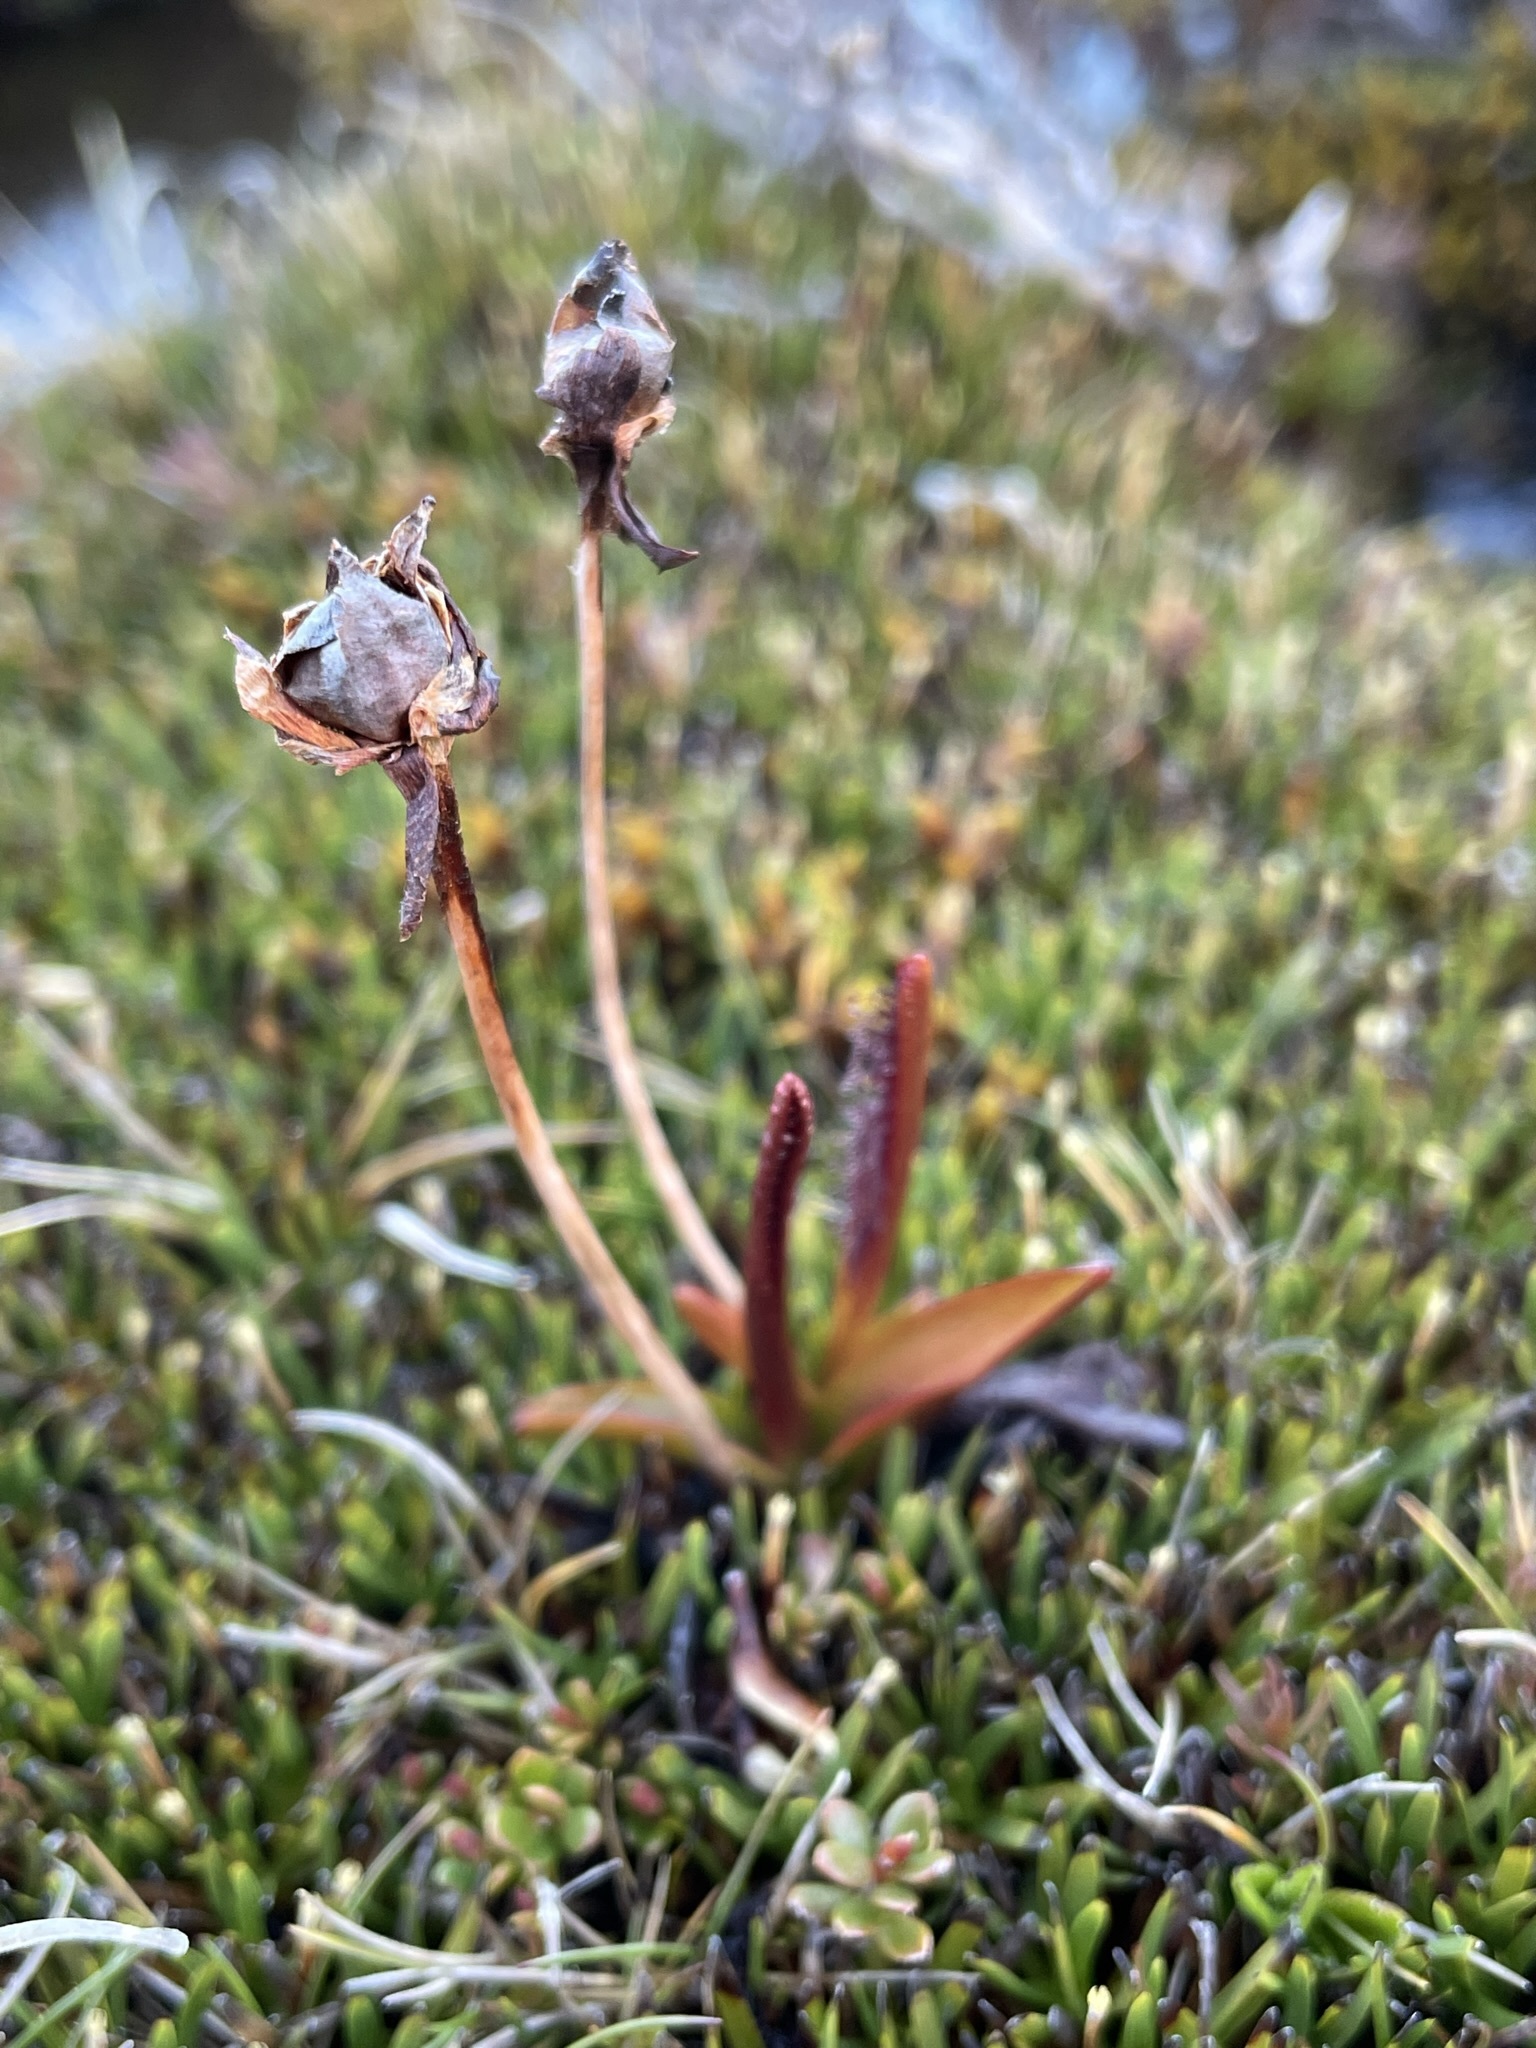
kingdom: Plantae
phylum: Tracheophyta
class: Magnoliopsida
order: Caryophyllales
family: Droseraceae
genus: Drosera
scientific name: Drosera murfetii
